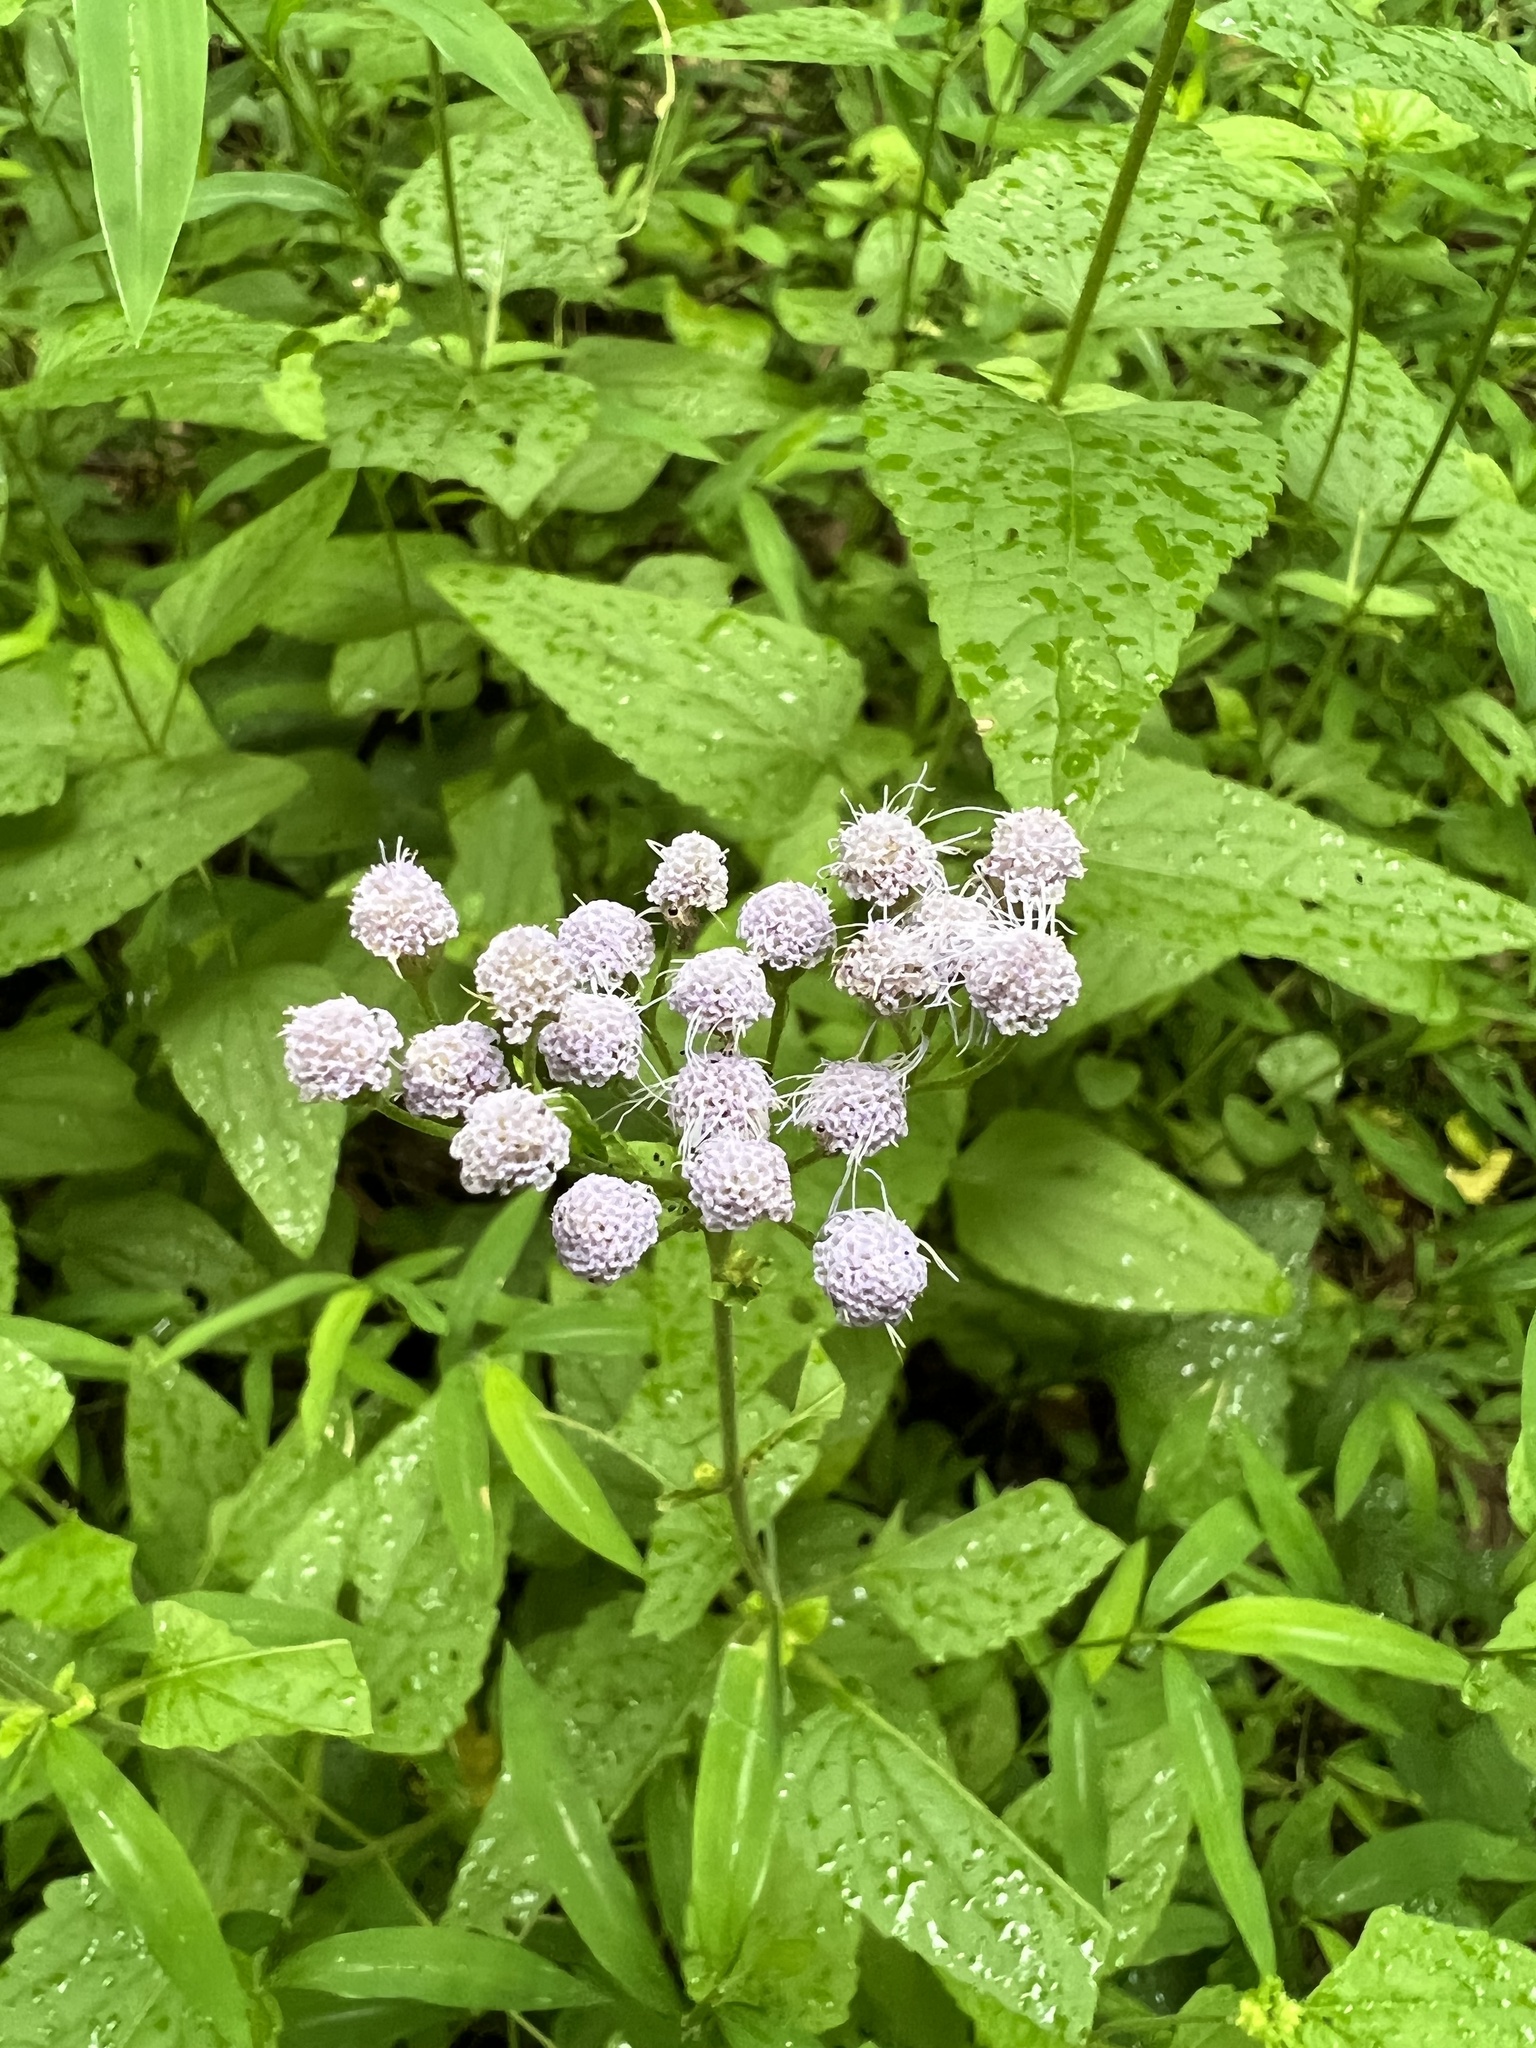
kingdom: Plantae
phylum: Tracheophyta
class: Magnoliopsida
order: Asterales
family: Asteraceae
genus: Conoclinium
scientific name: Conoclinium coelestinum
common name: Blue mistflower
